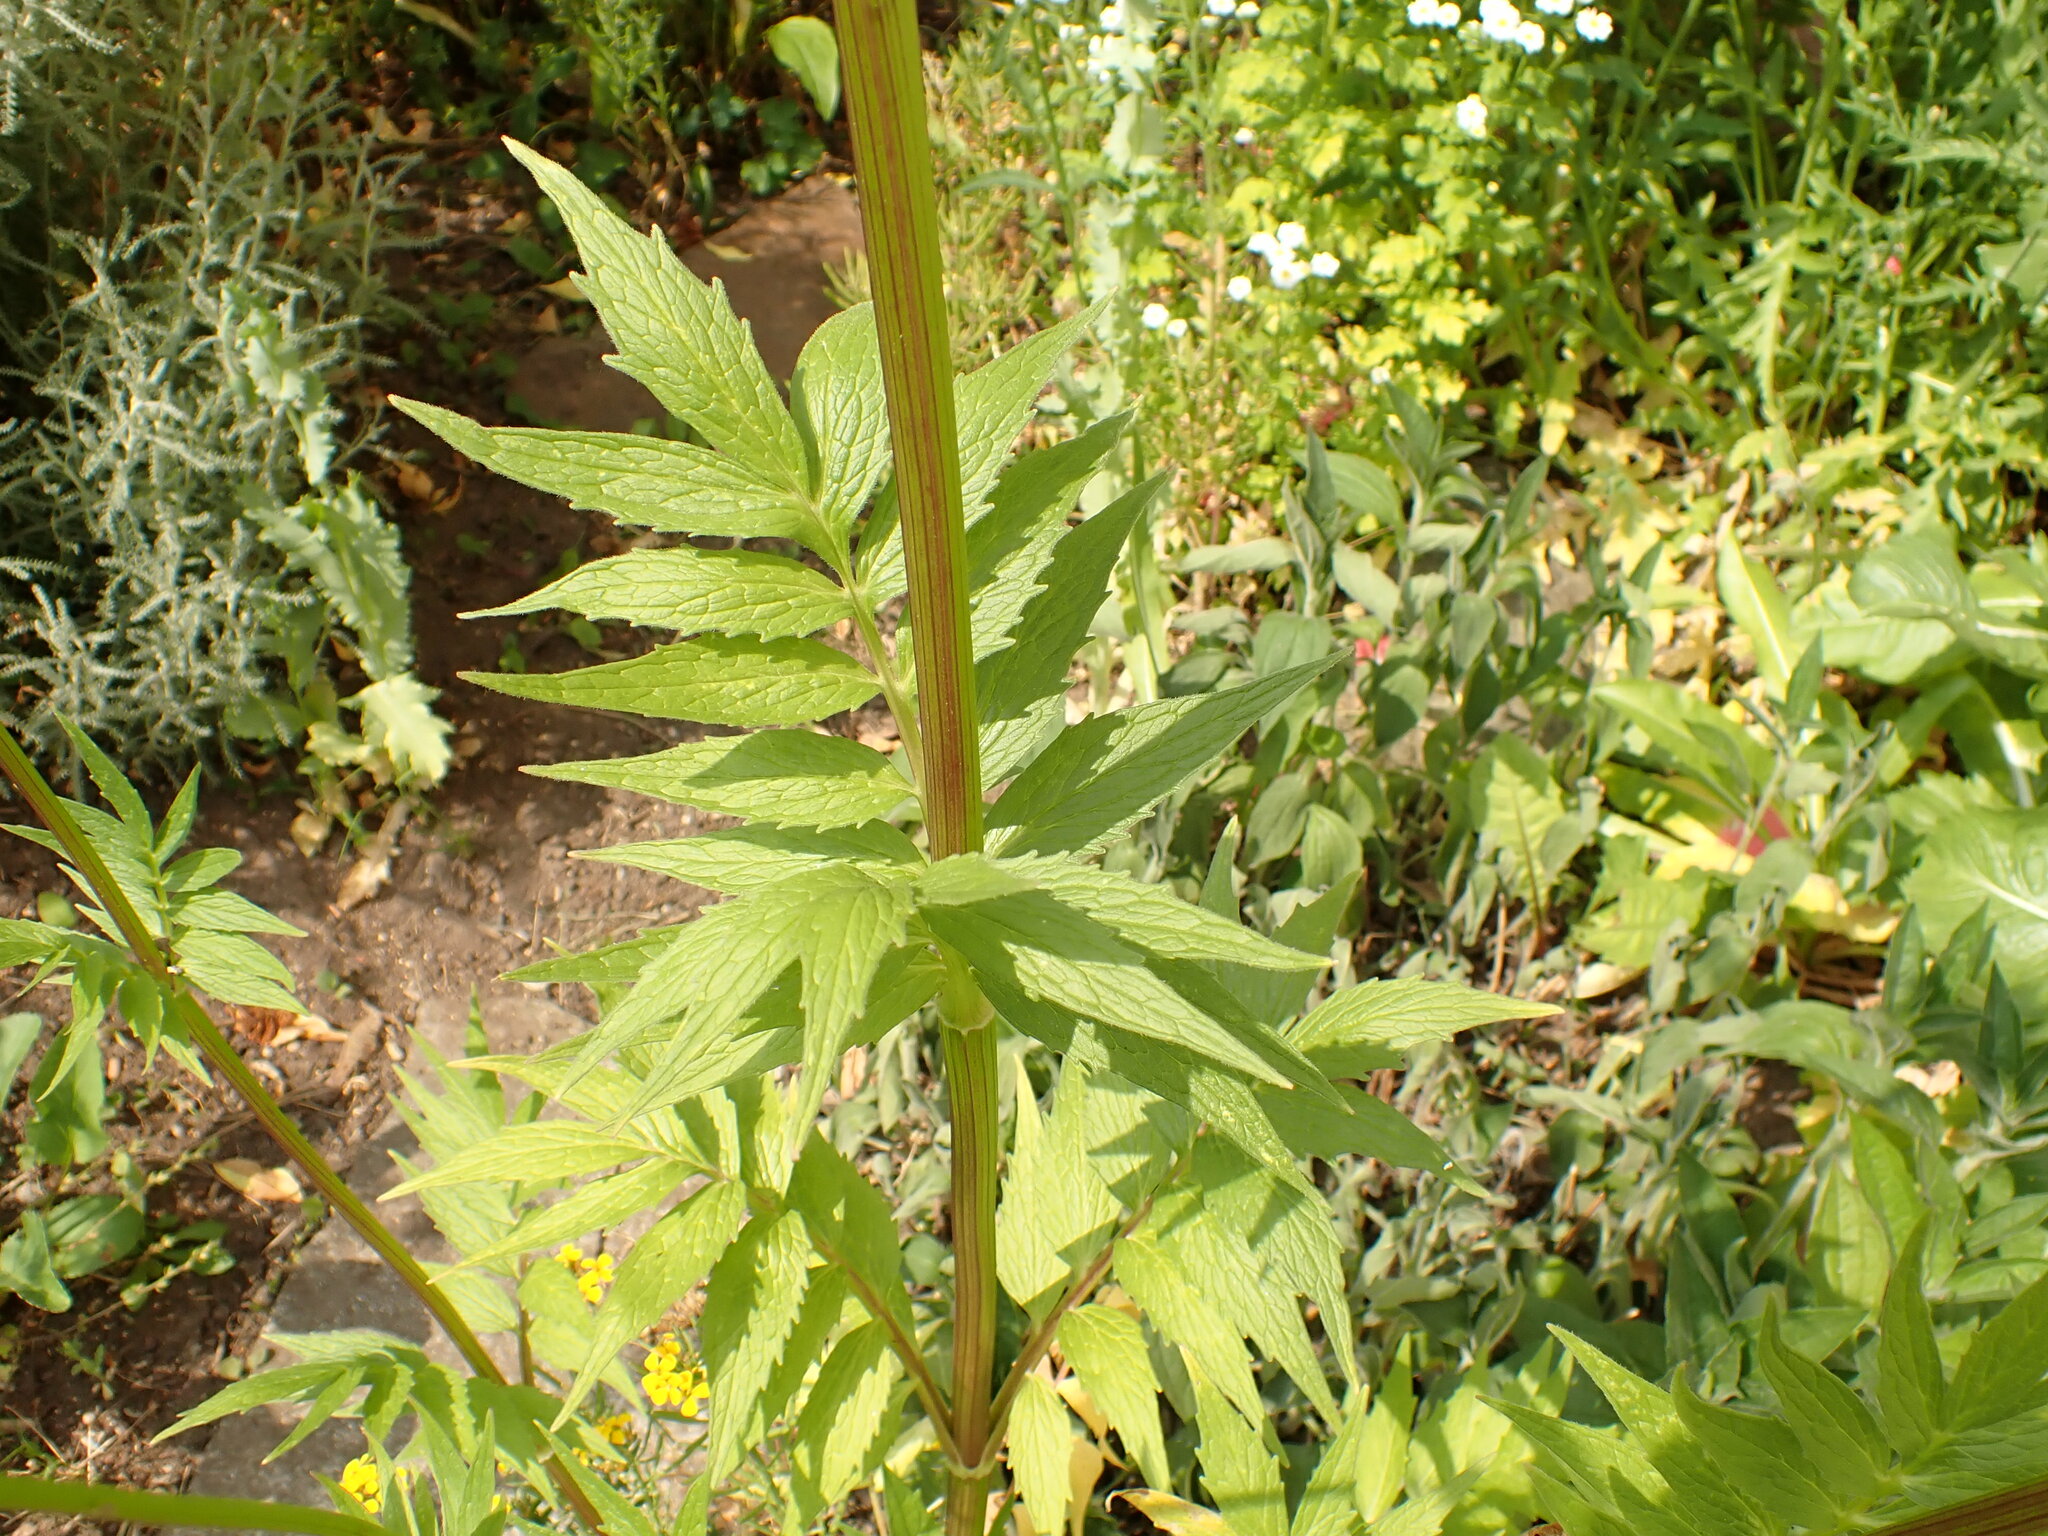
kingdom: Plantae
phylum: Tracheophyta
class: Magnoliopsida
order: Dipsacales
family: Caprifoliaceae
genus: Valeriana
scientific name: Valeriana officinalis
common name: Common valerian
